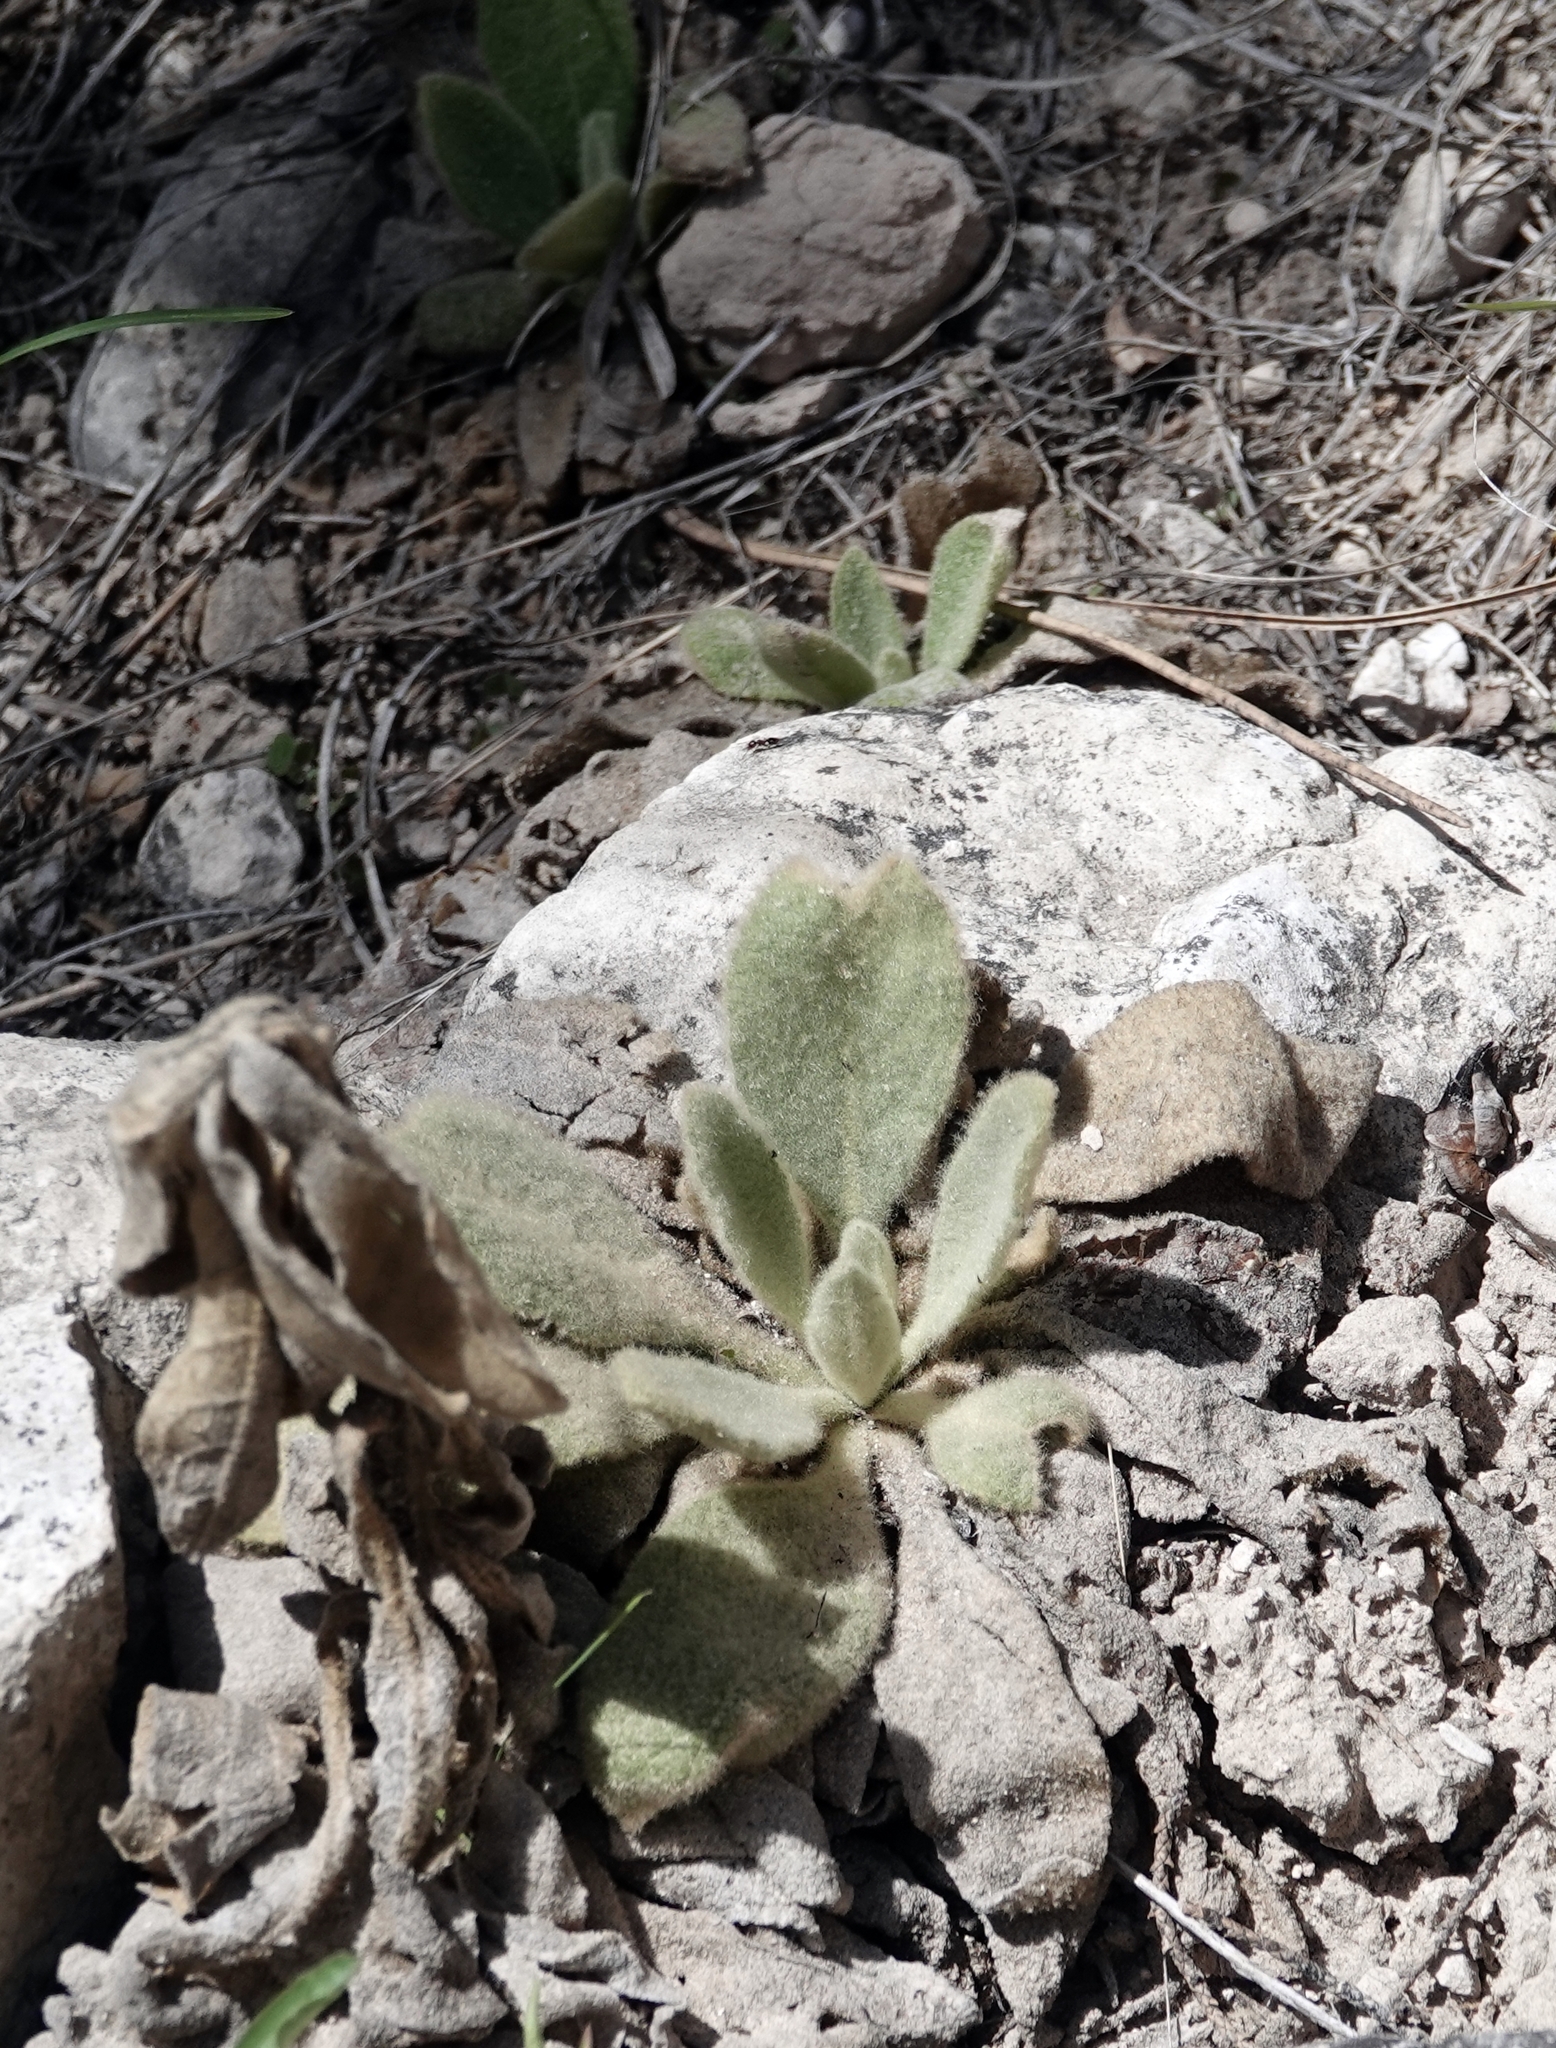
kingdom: Plantae
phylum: Tracheophyta
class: Magnoliopsida
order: Lamiales
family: Scrophulariaceae
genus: Verbascum
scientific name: Verbascum thapsus
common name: Common mullein
